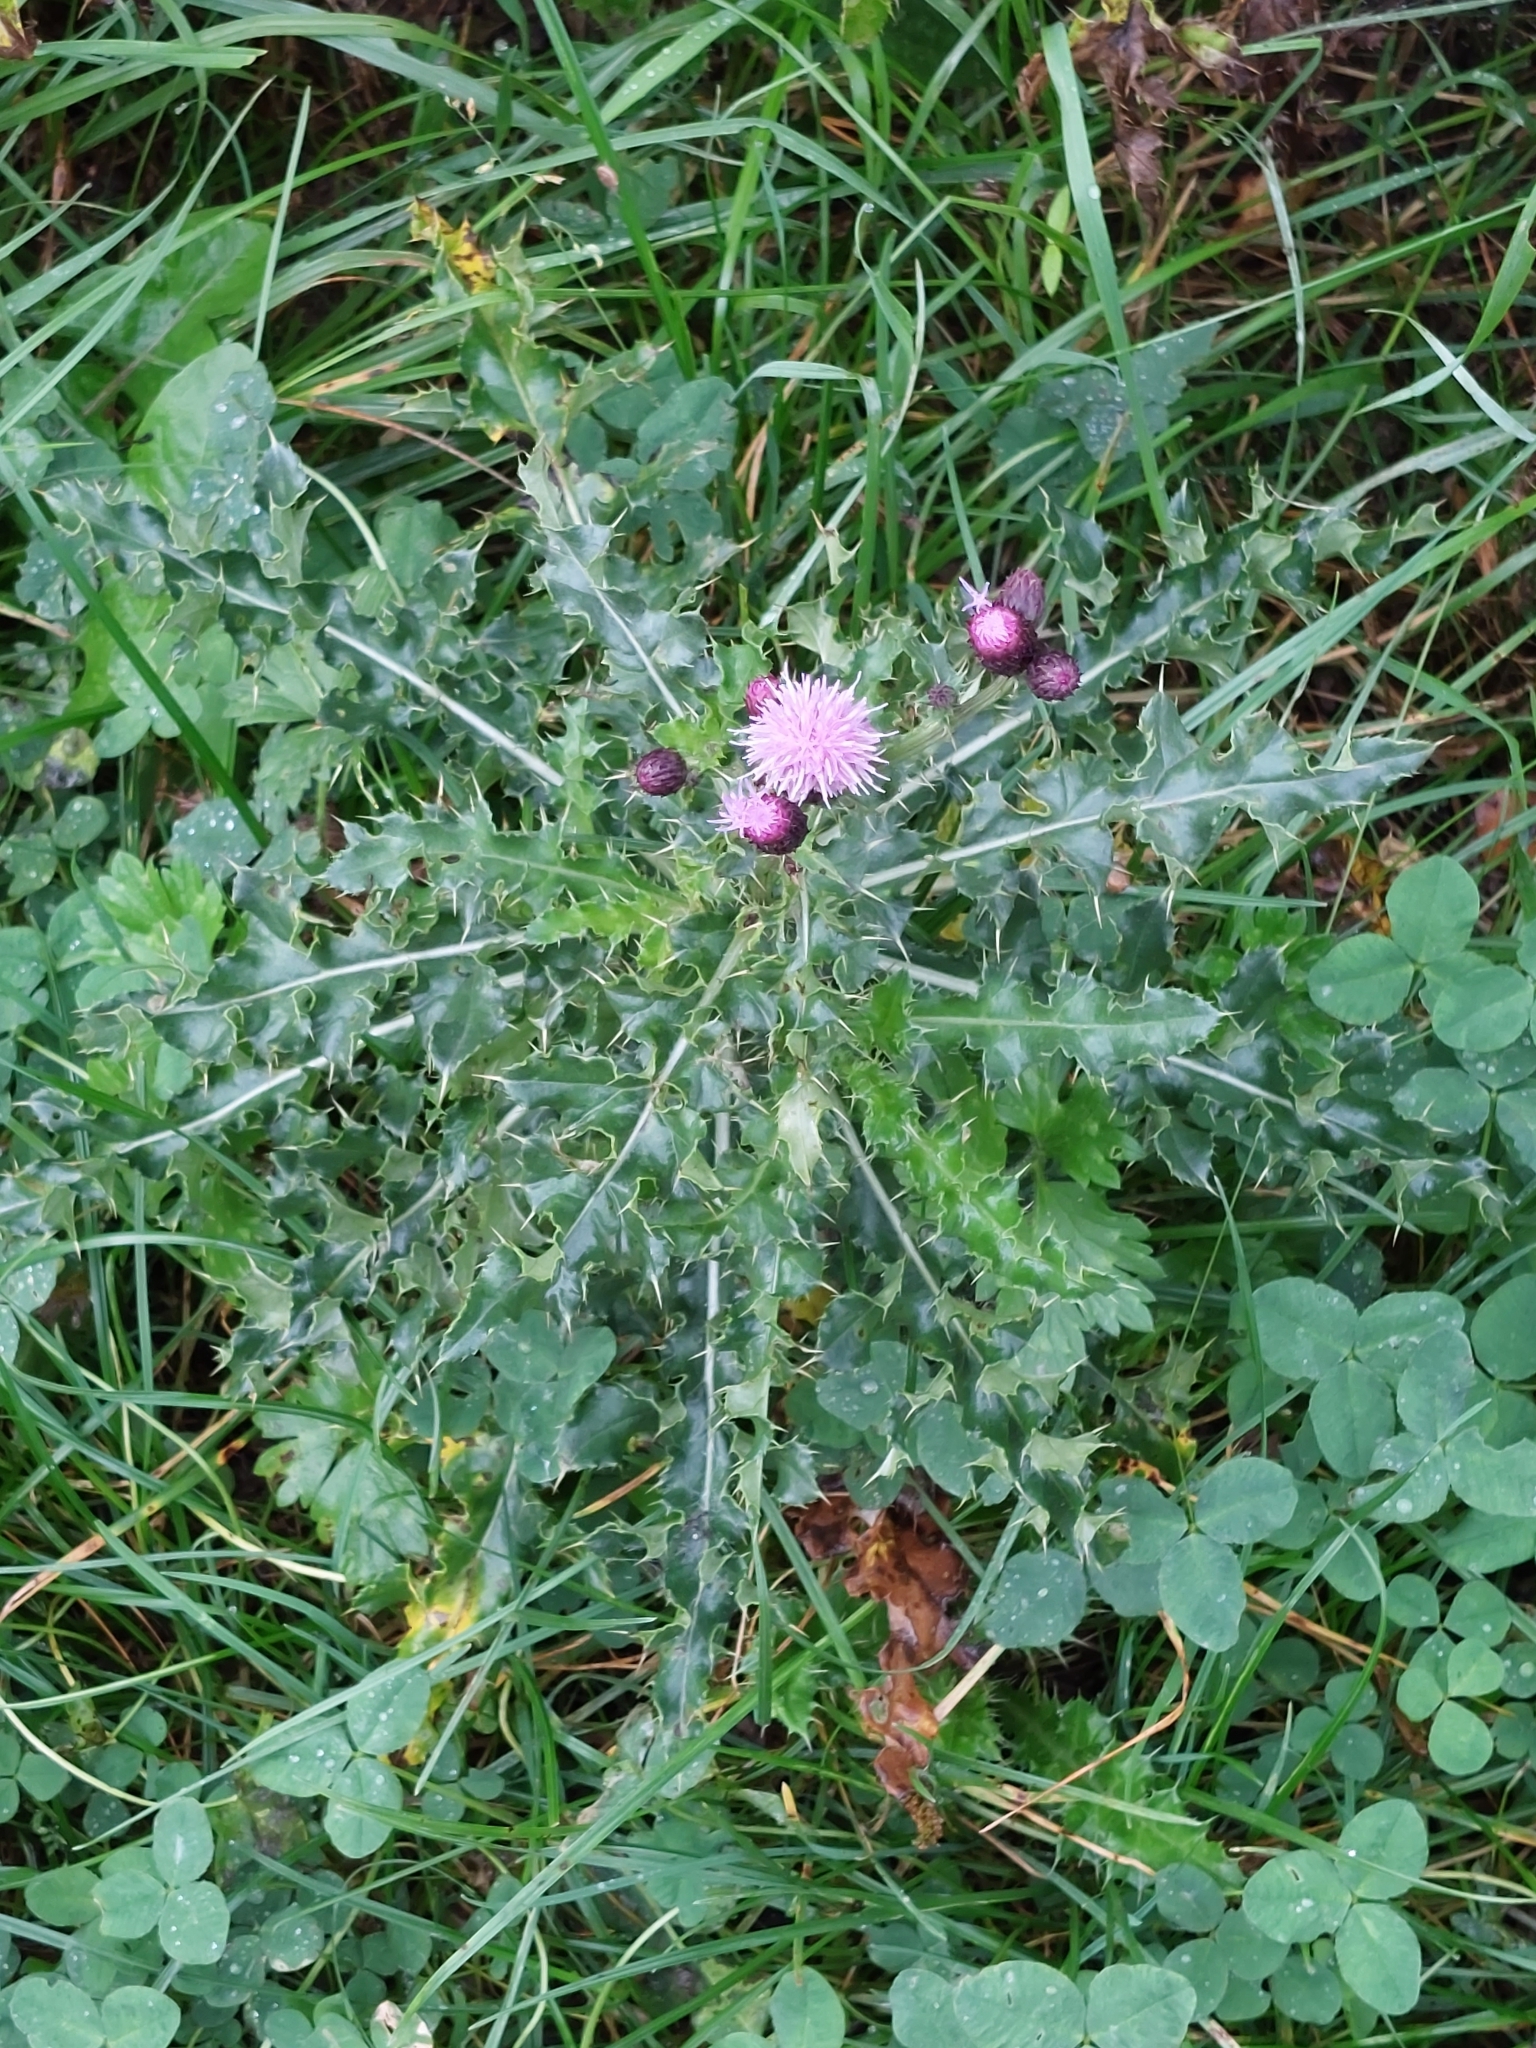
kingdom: Plantae
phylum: Tracheophyta
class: Magnoliopsida
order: Asterales
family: Asteraceae
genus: Cirsium
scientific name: Cirsium arvense
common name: Creeping thistle
